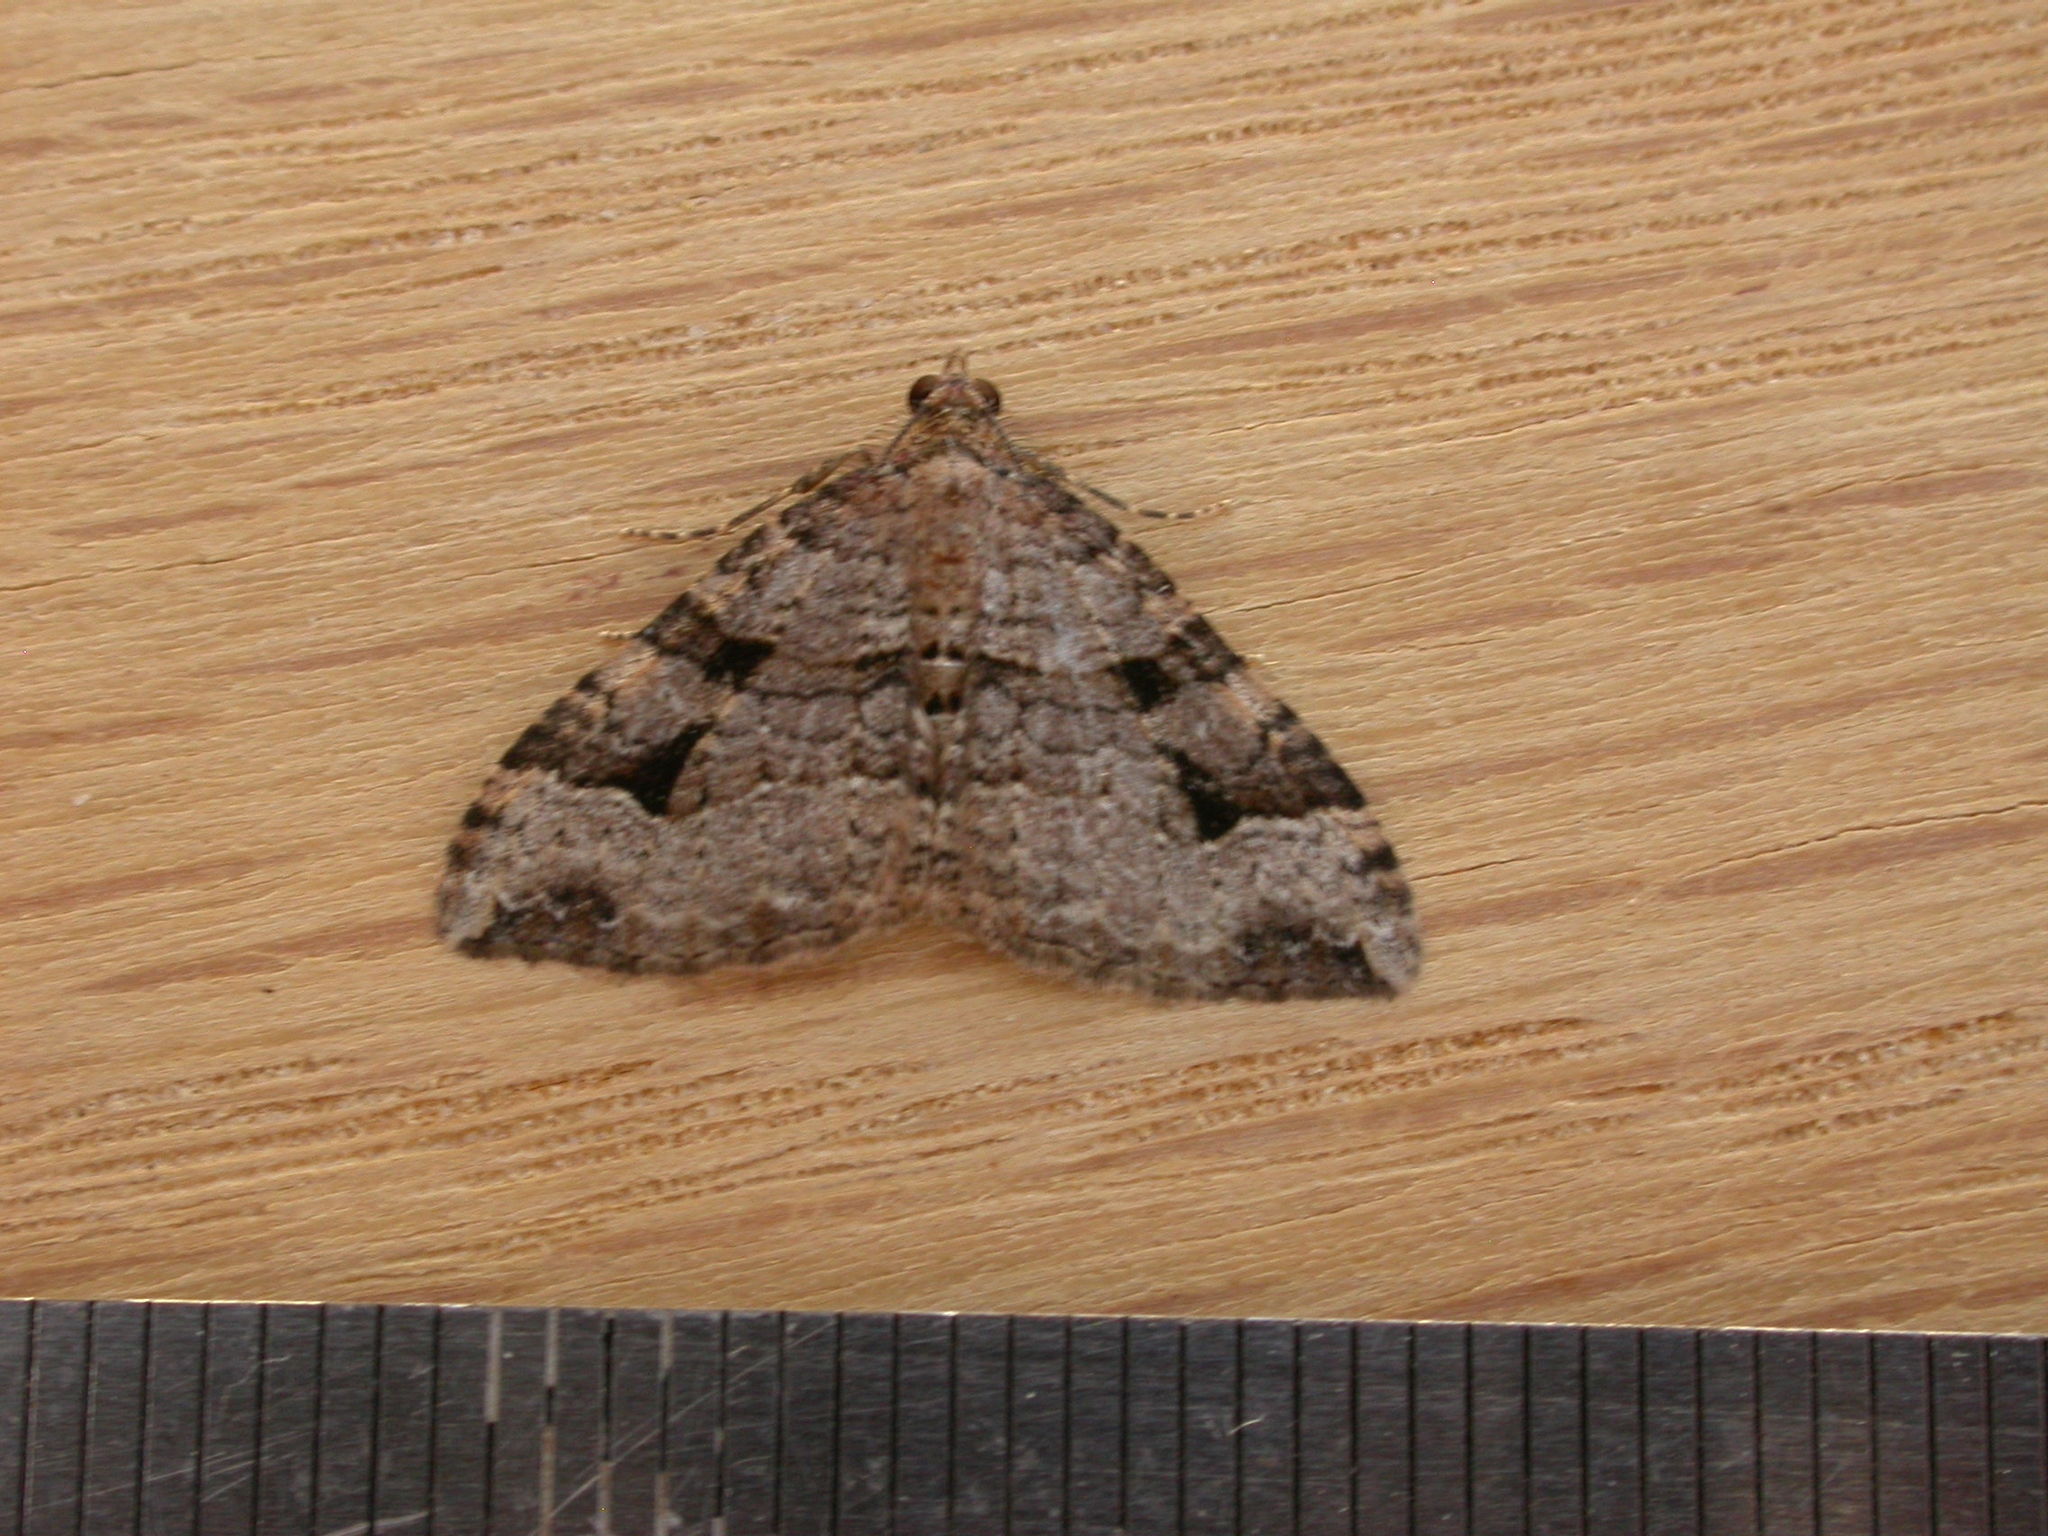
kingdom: Animalia
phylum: Arthropoda
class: Insecta
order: Lepidoptera
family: Geometridae
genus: Epyaxa
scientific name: Epyaxa subidaria
